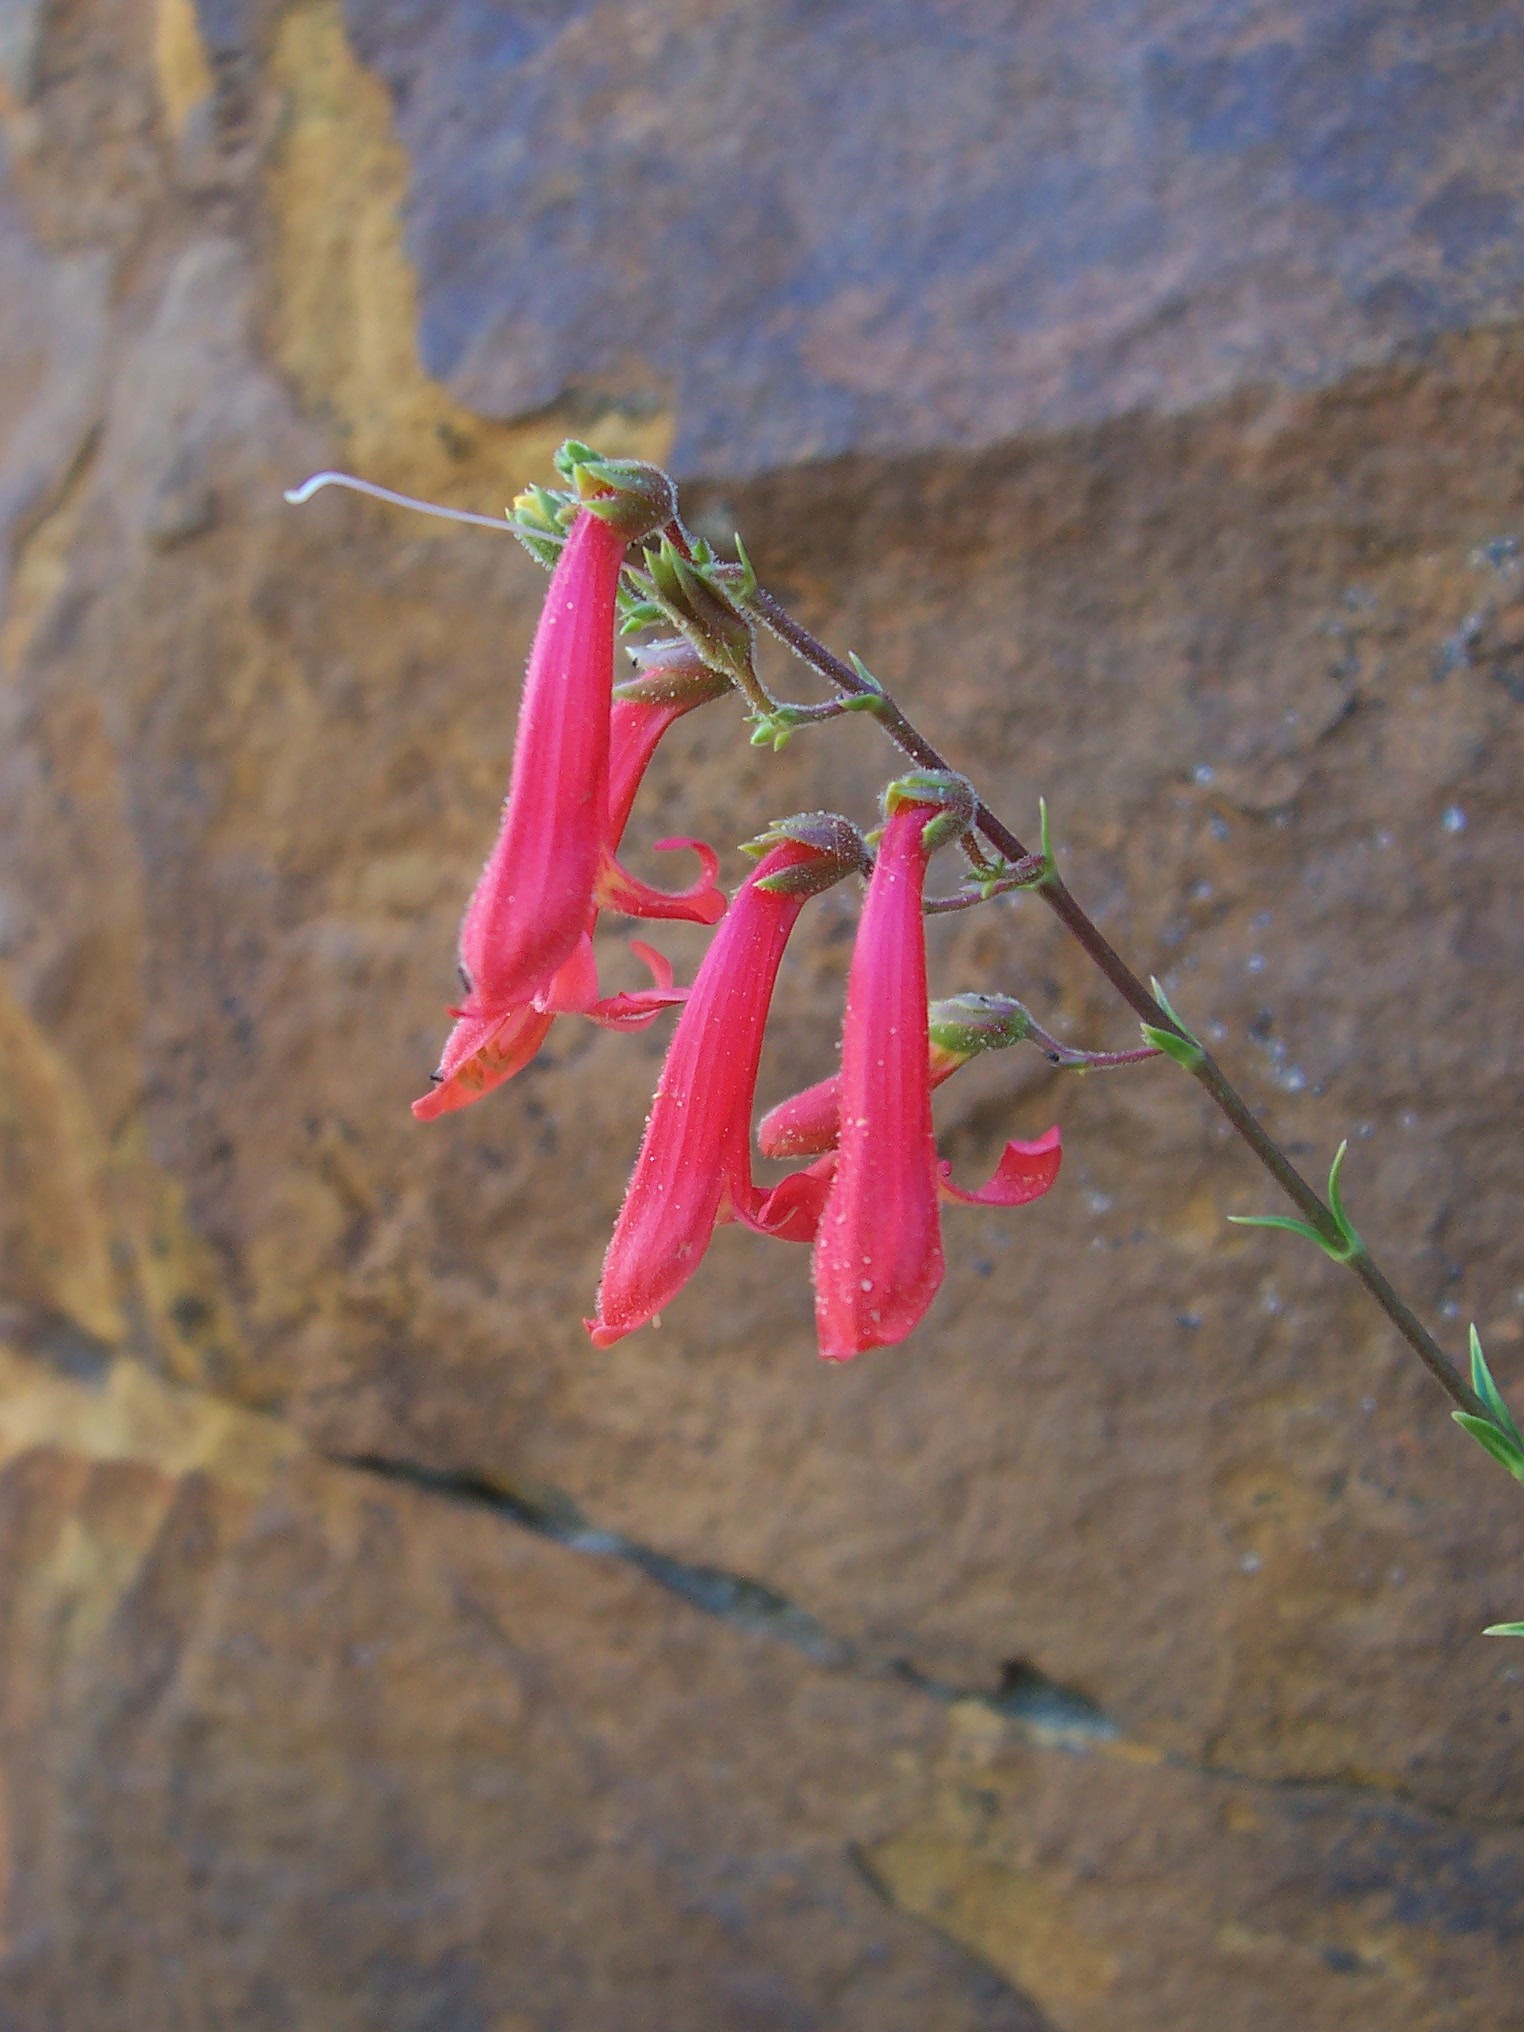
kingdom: Plantae
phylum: Tracheophyta
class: Magnoliopsida
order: Lamiales
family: Plantaginaceae
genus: Penstemon
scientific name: Penstemon rostriflorus
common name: Bridges's penstemon
